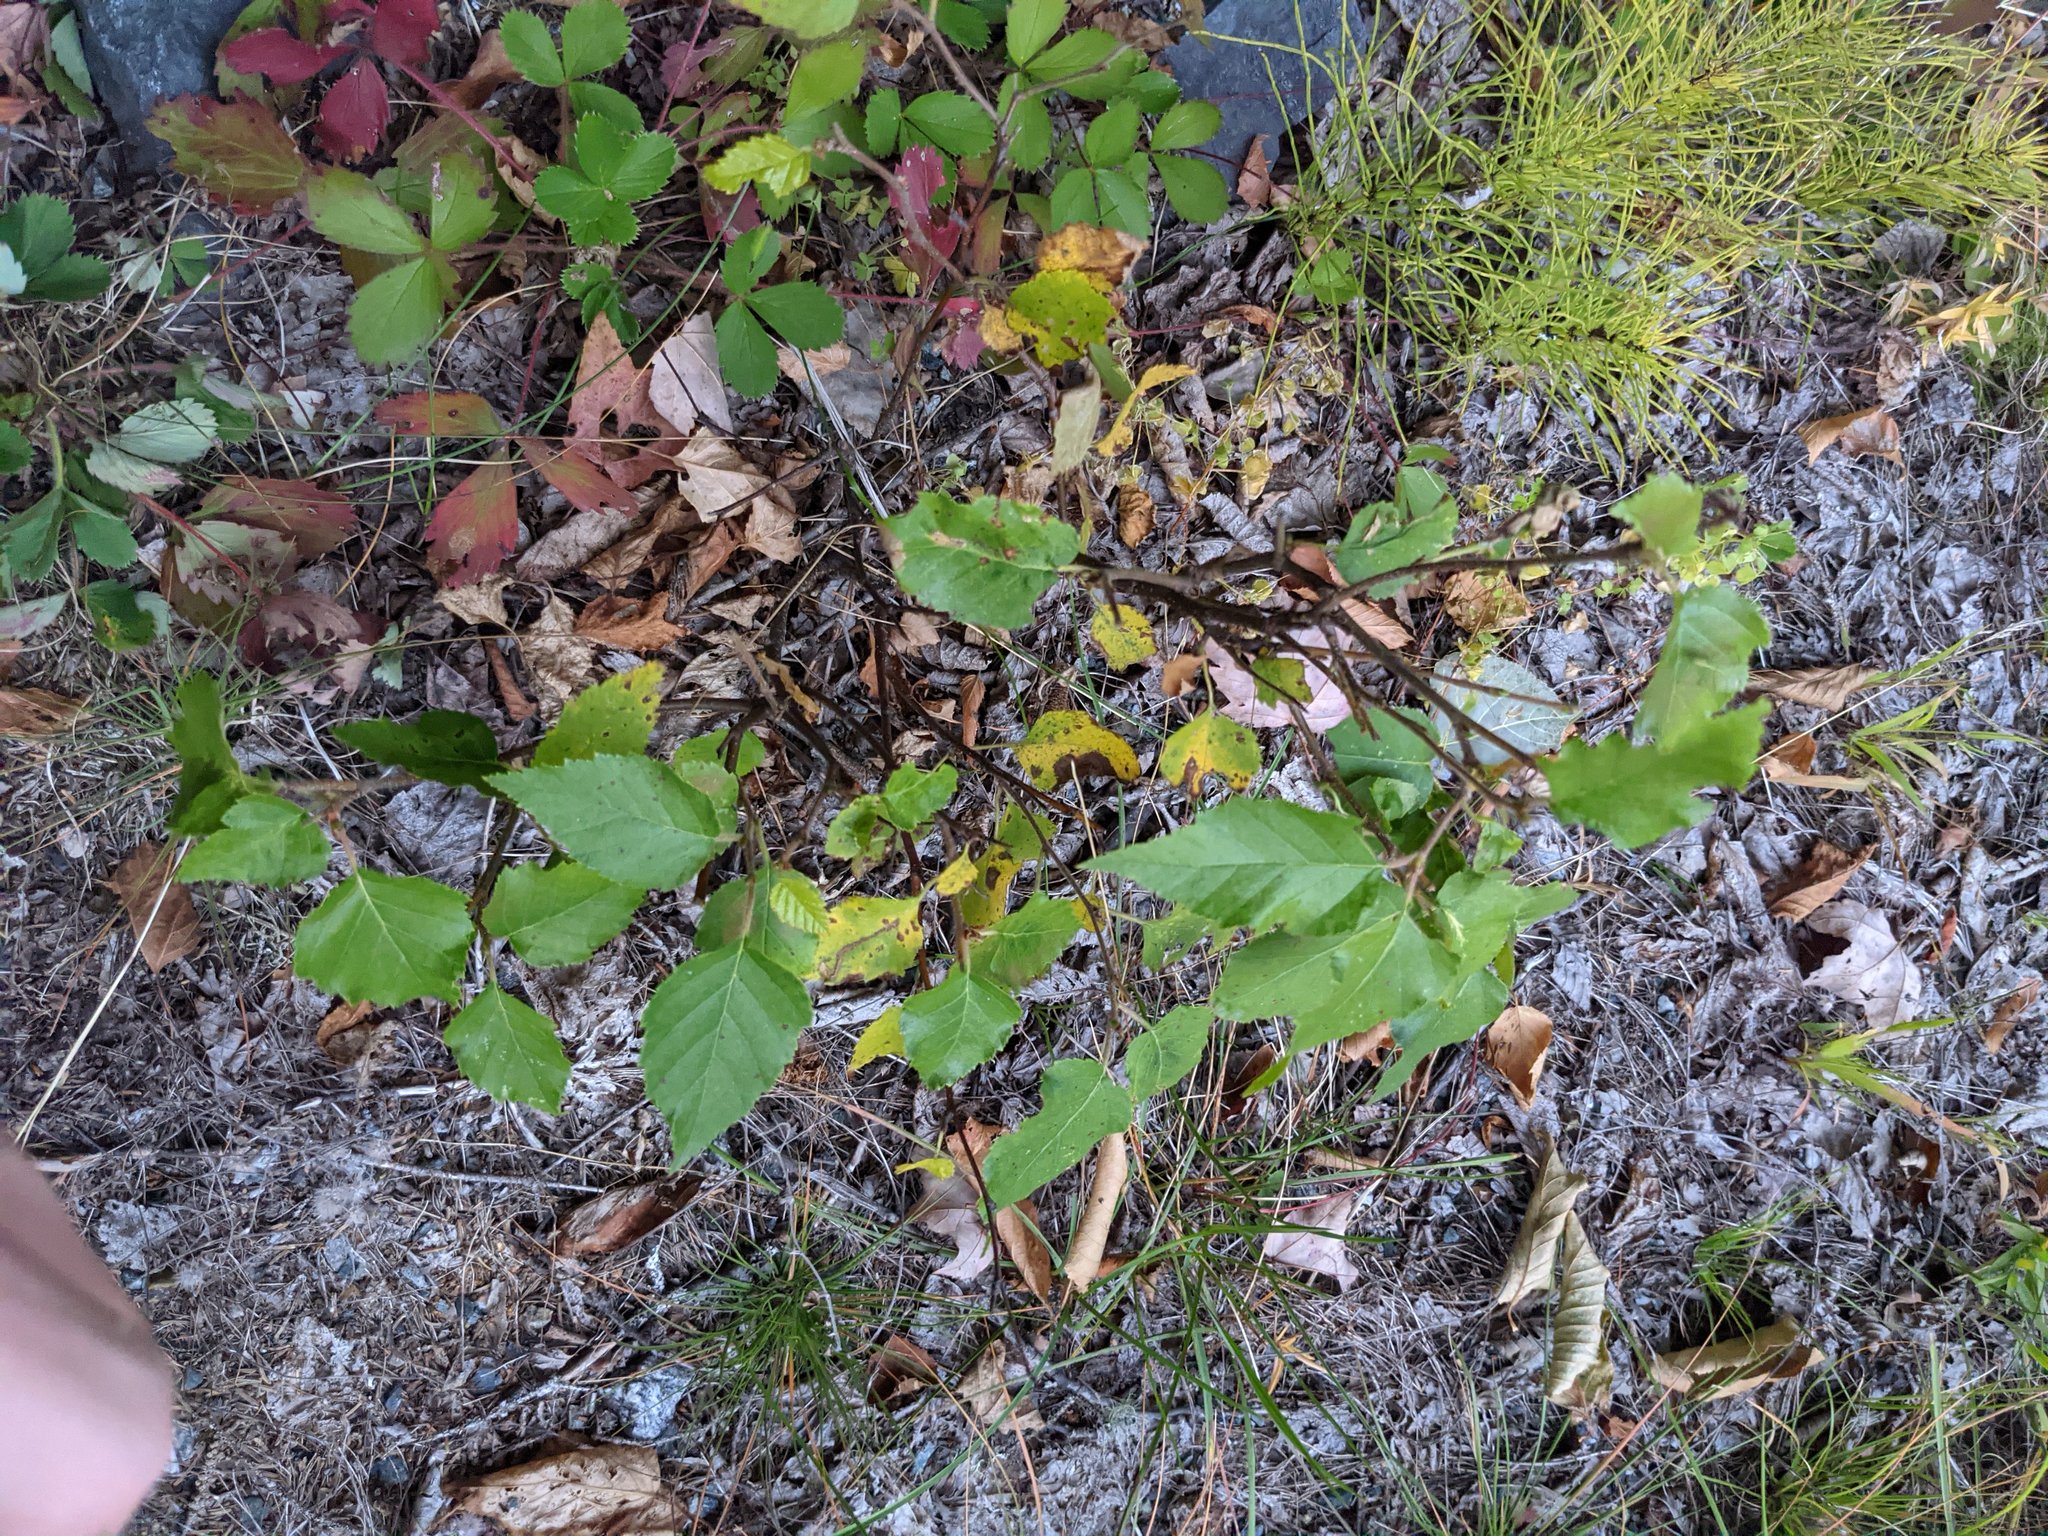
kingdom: Plantae
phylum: Tracheophyta
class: Magnoliopsida
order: Fagales
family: Betulaceae
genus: Betula
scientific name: Betula nigra
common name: Black birch
